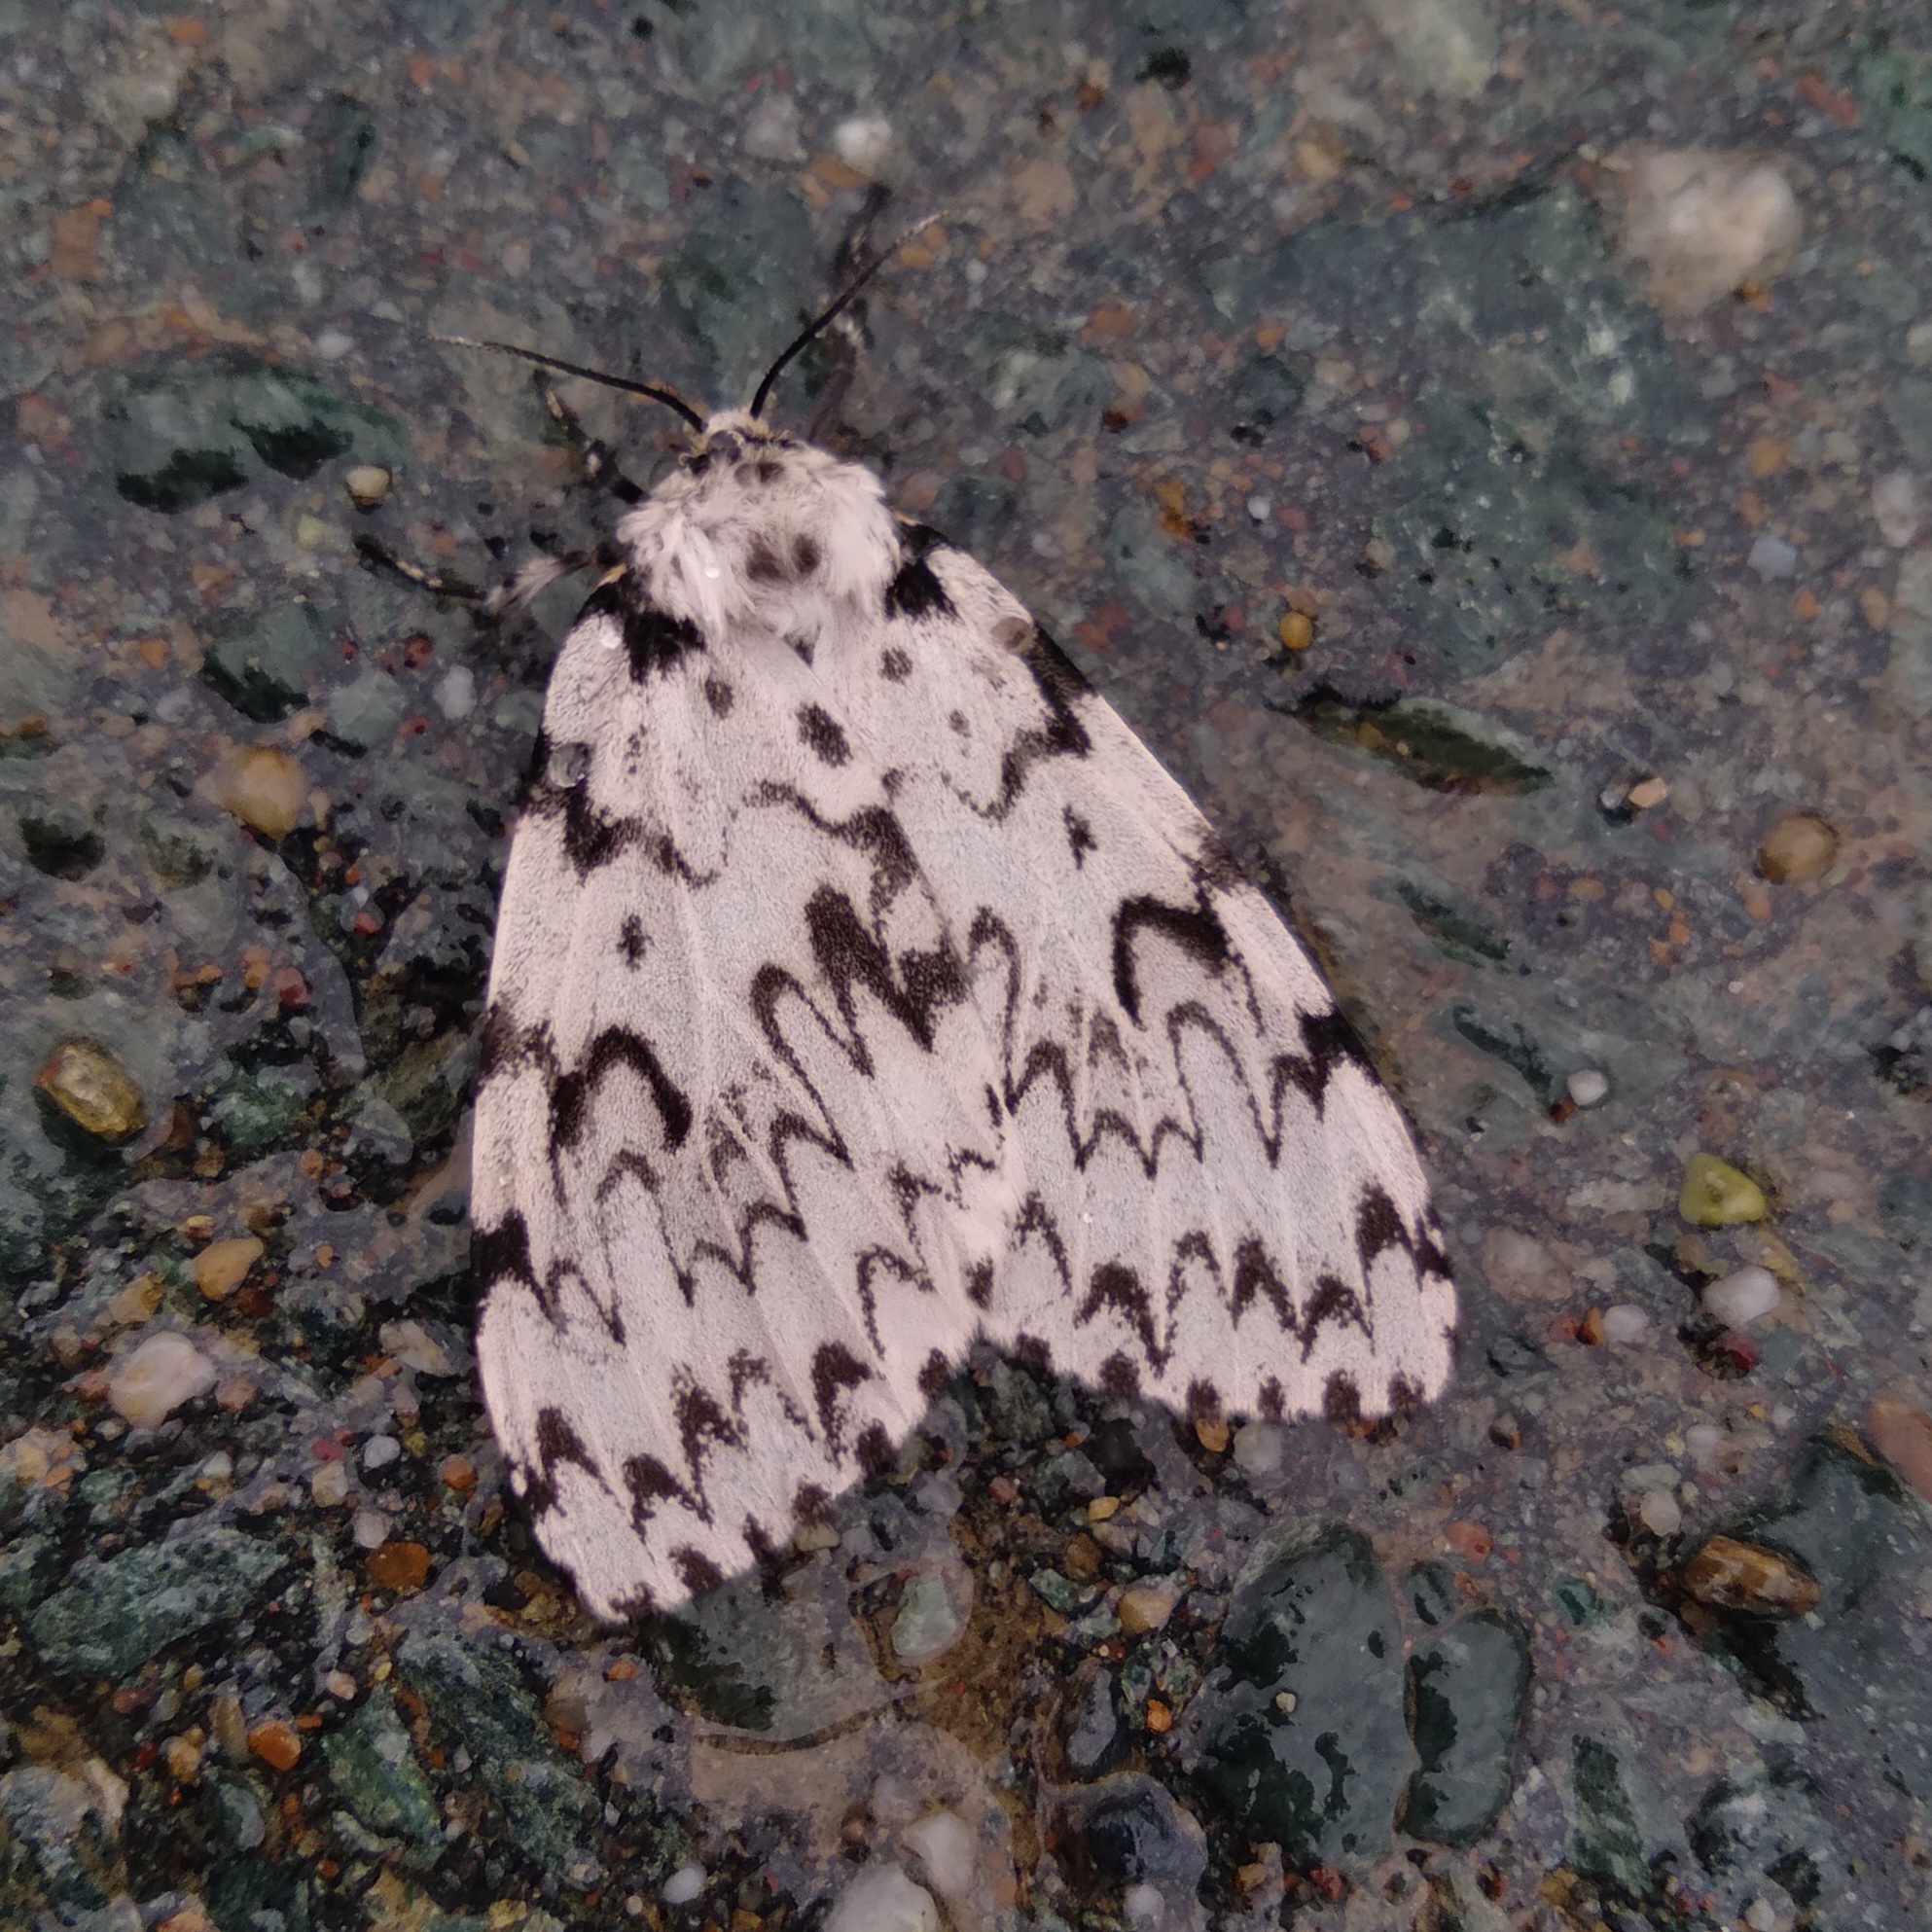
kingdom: Animalia
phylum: Arthropoda
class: Insecta
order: Lepidoptera
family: Erebidae
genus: Lymantria
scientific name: Lymantria monacha
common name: Black arches
